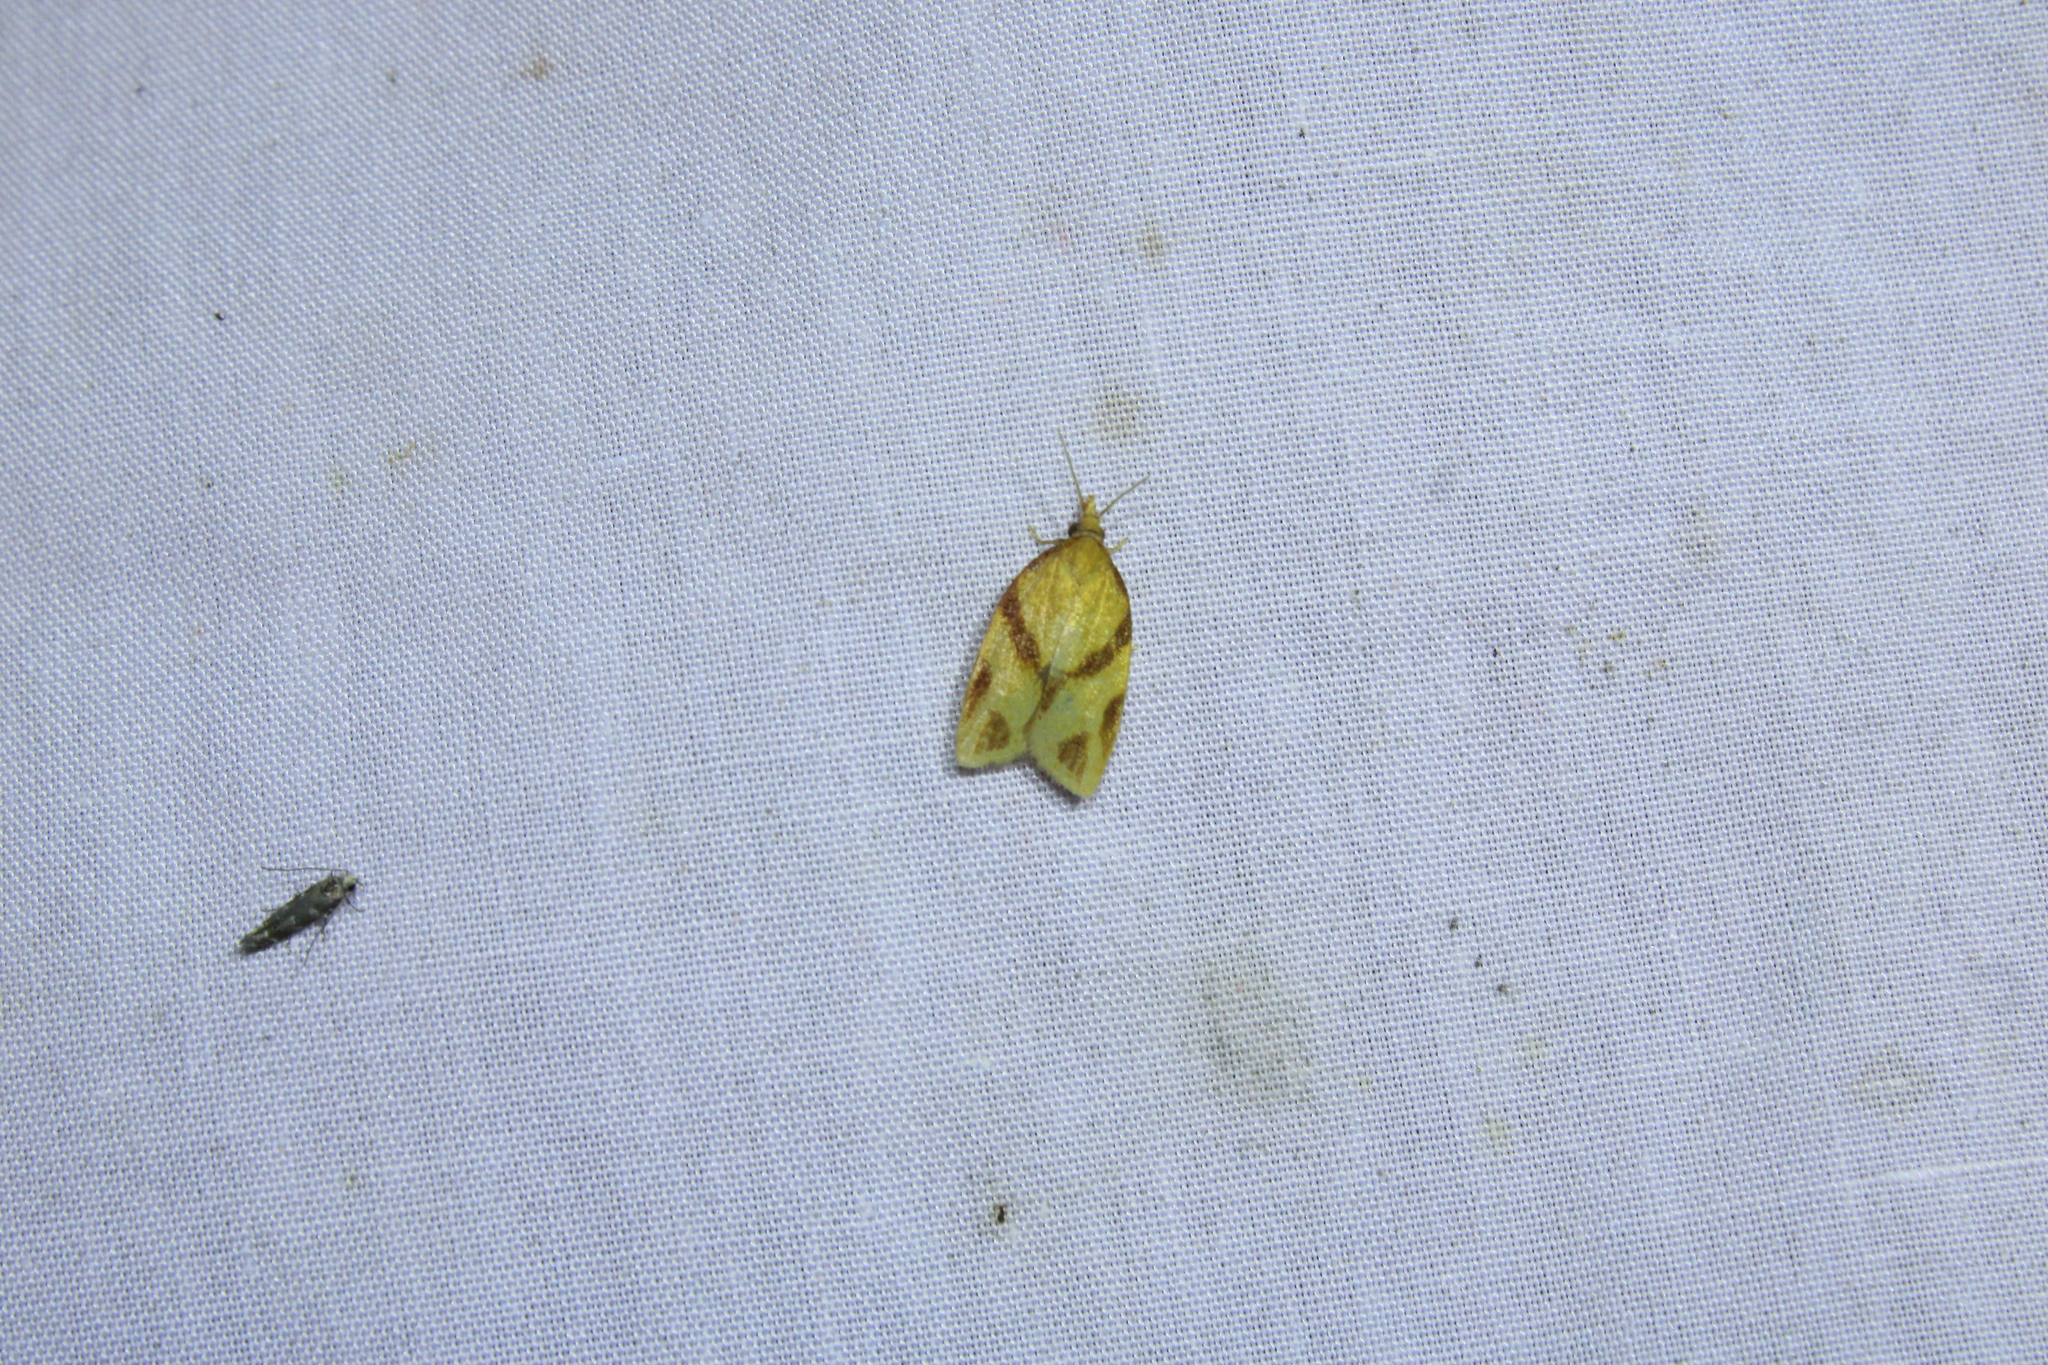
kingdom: Animalia
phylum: Arthropoda
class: Insecta
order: Lepidoptera
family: Tortricidae
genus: Sparganothis
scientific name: Sparganothis unifasciana
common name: One-lined sparganothis moth
